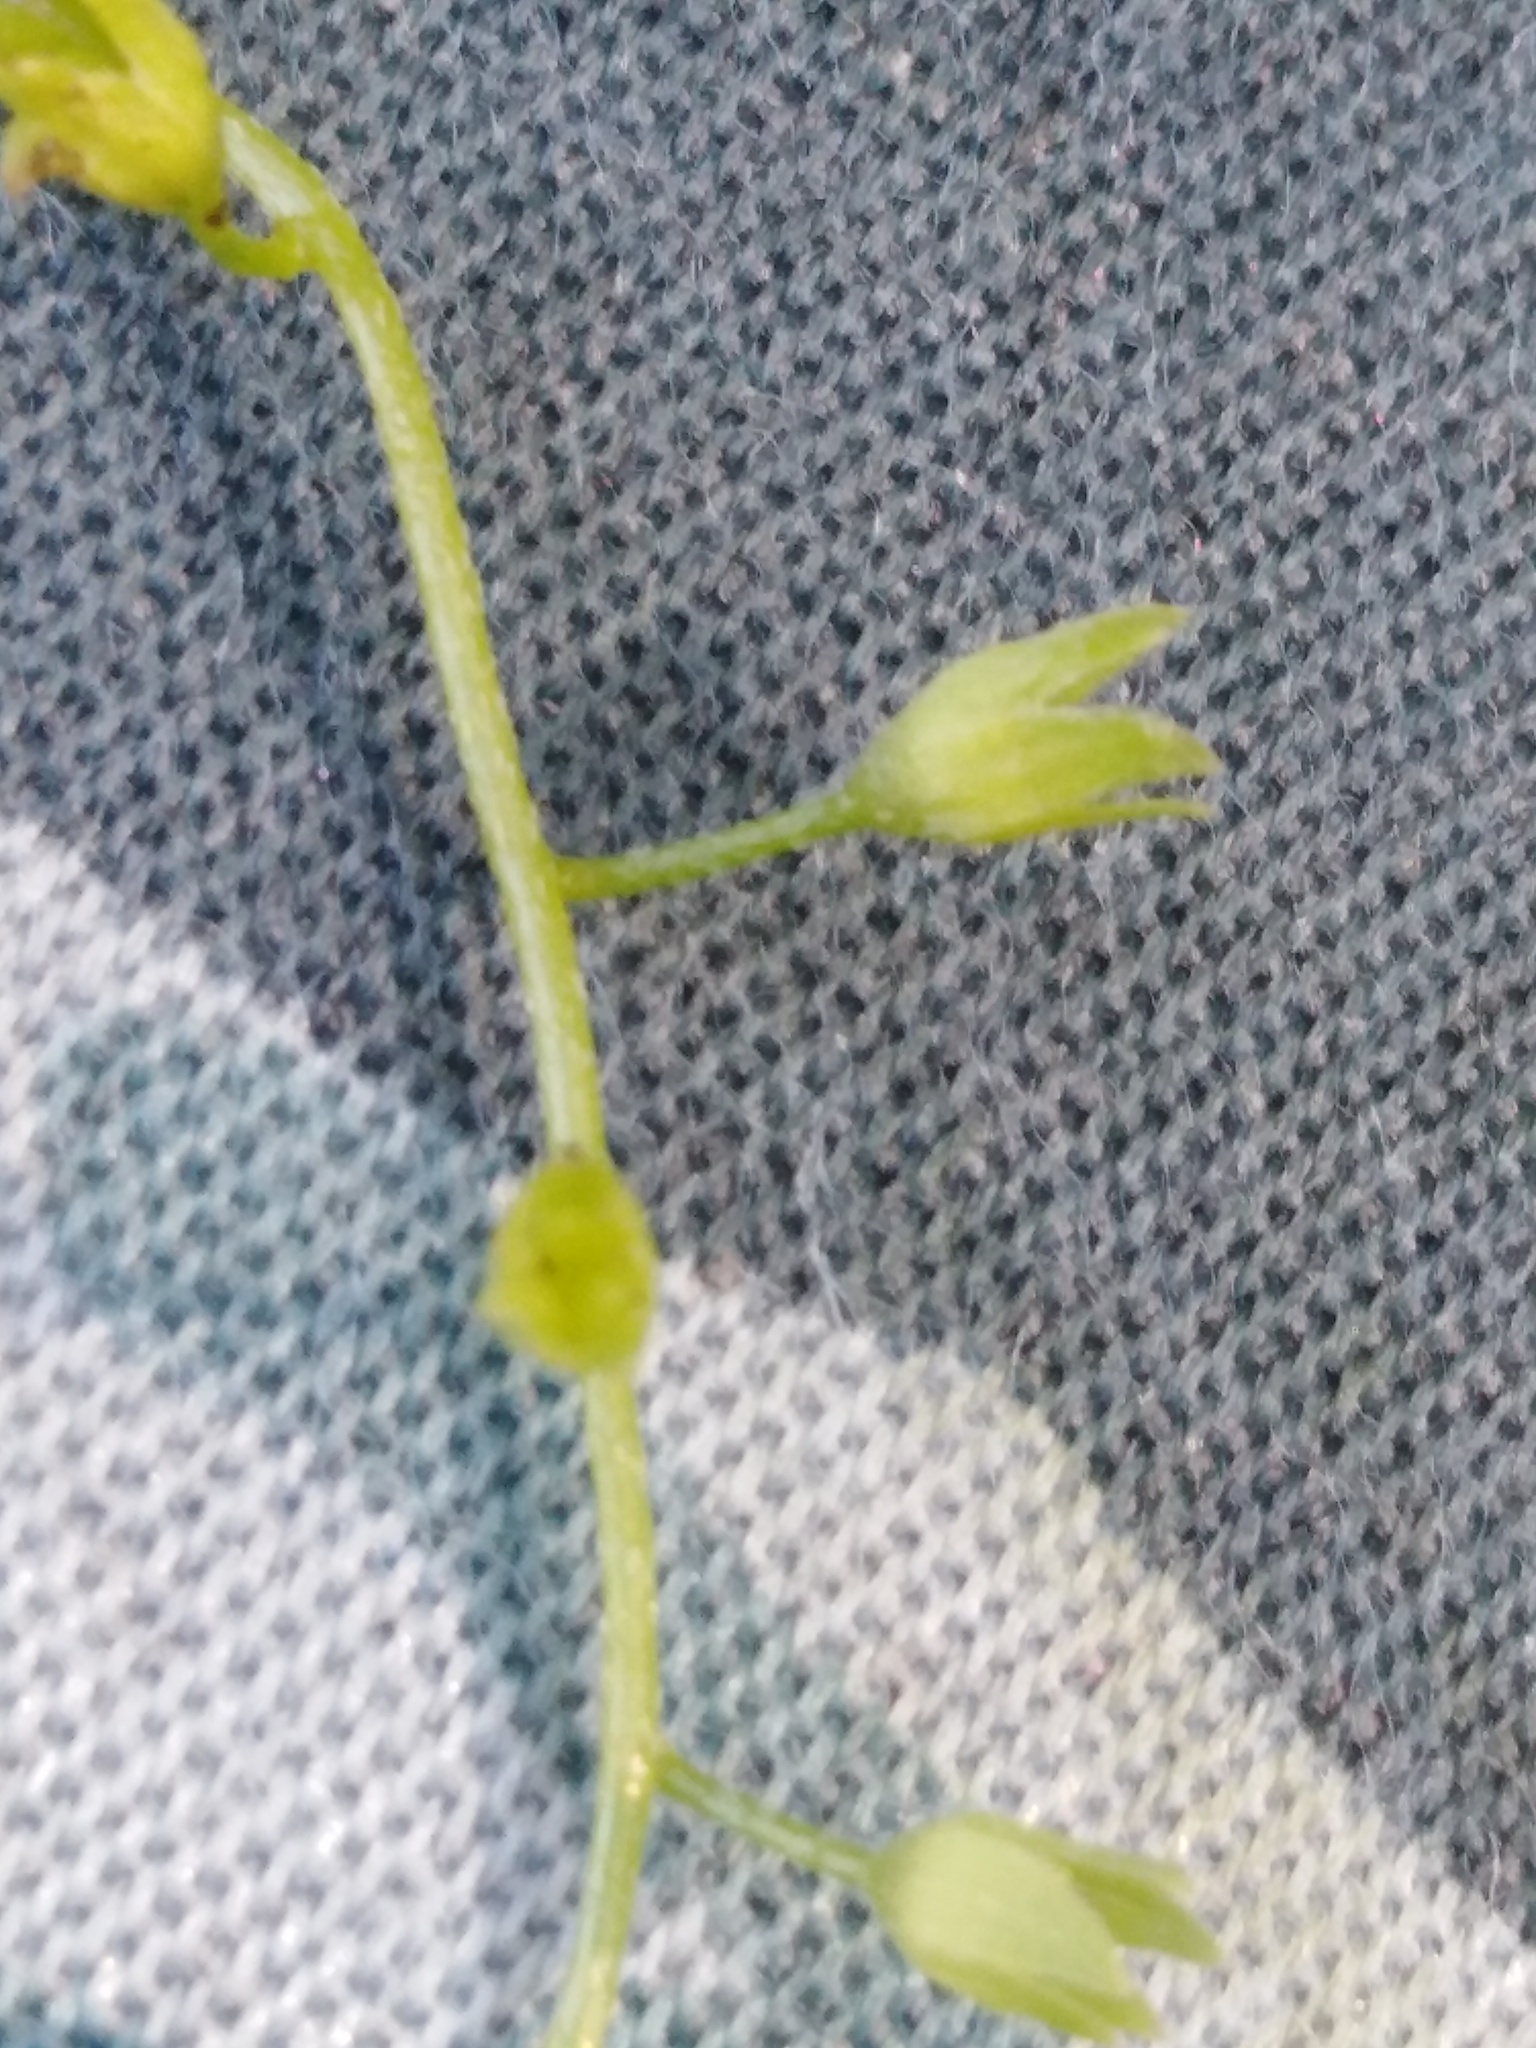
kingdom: Plantae
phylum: Tracheophyta
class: Magnoliopsida
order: Boraginales
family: Boraginaceae
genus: Myosotis
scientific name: Myosotis scorpioides
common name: Water forget-me-not
